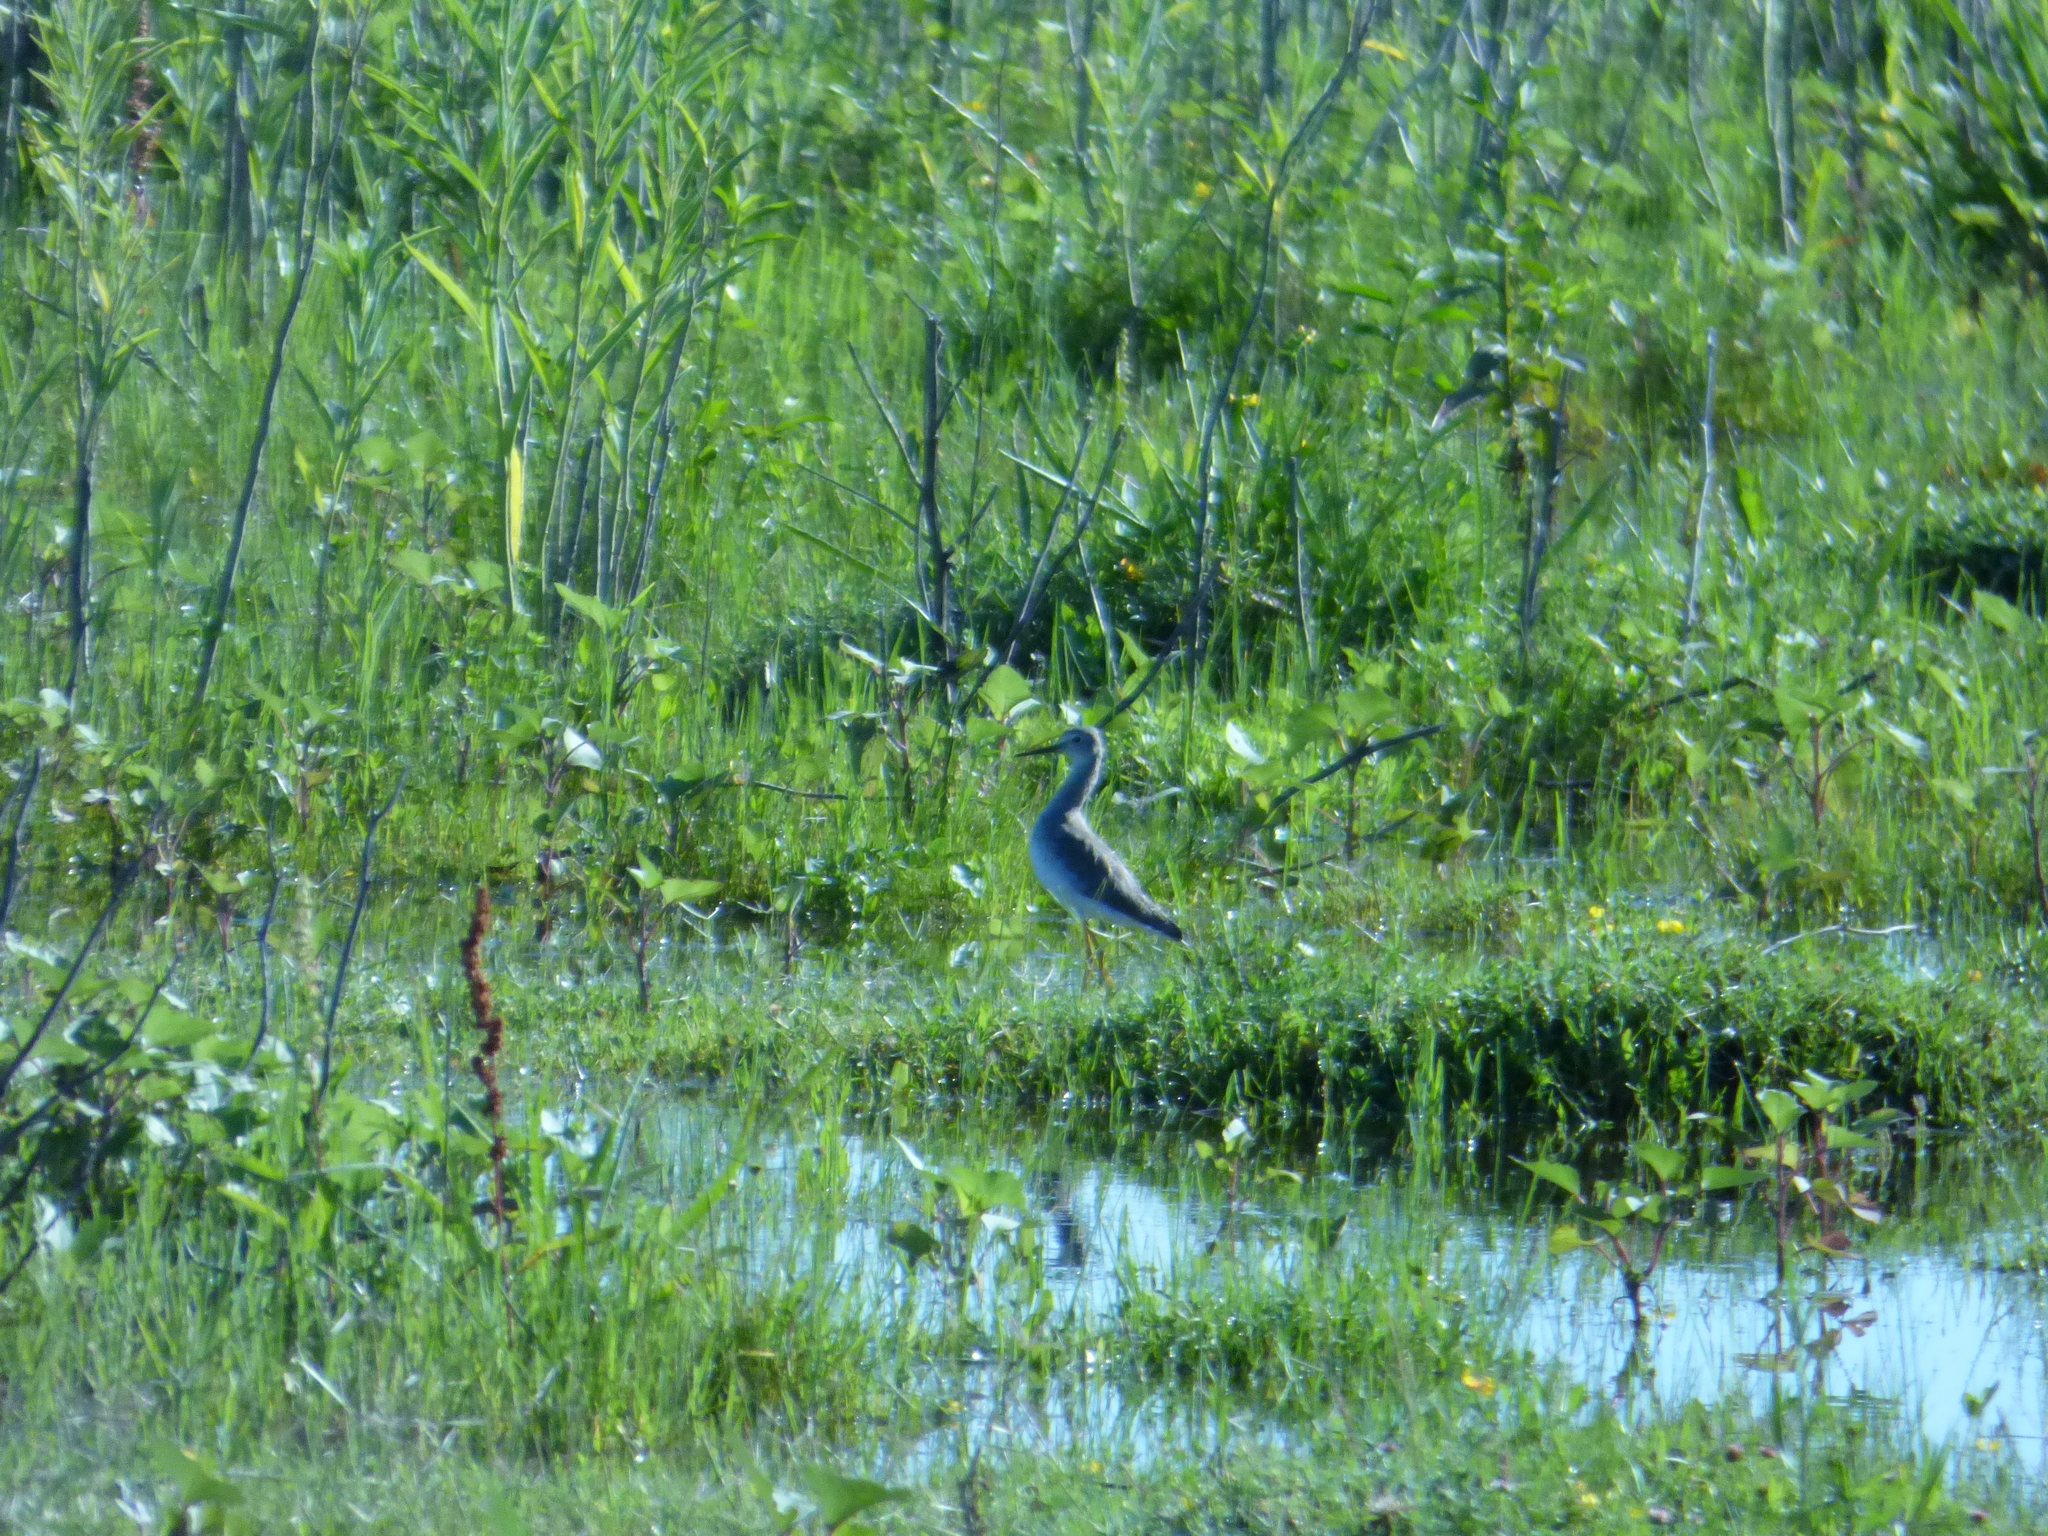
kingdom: Animalia
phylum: Chordata
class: Aves
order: Charadriiformes
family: Scolopacidae
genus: Tringa
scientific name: Tringa flavipes
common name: Lesser yellowlegs
